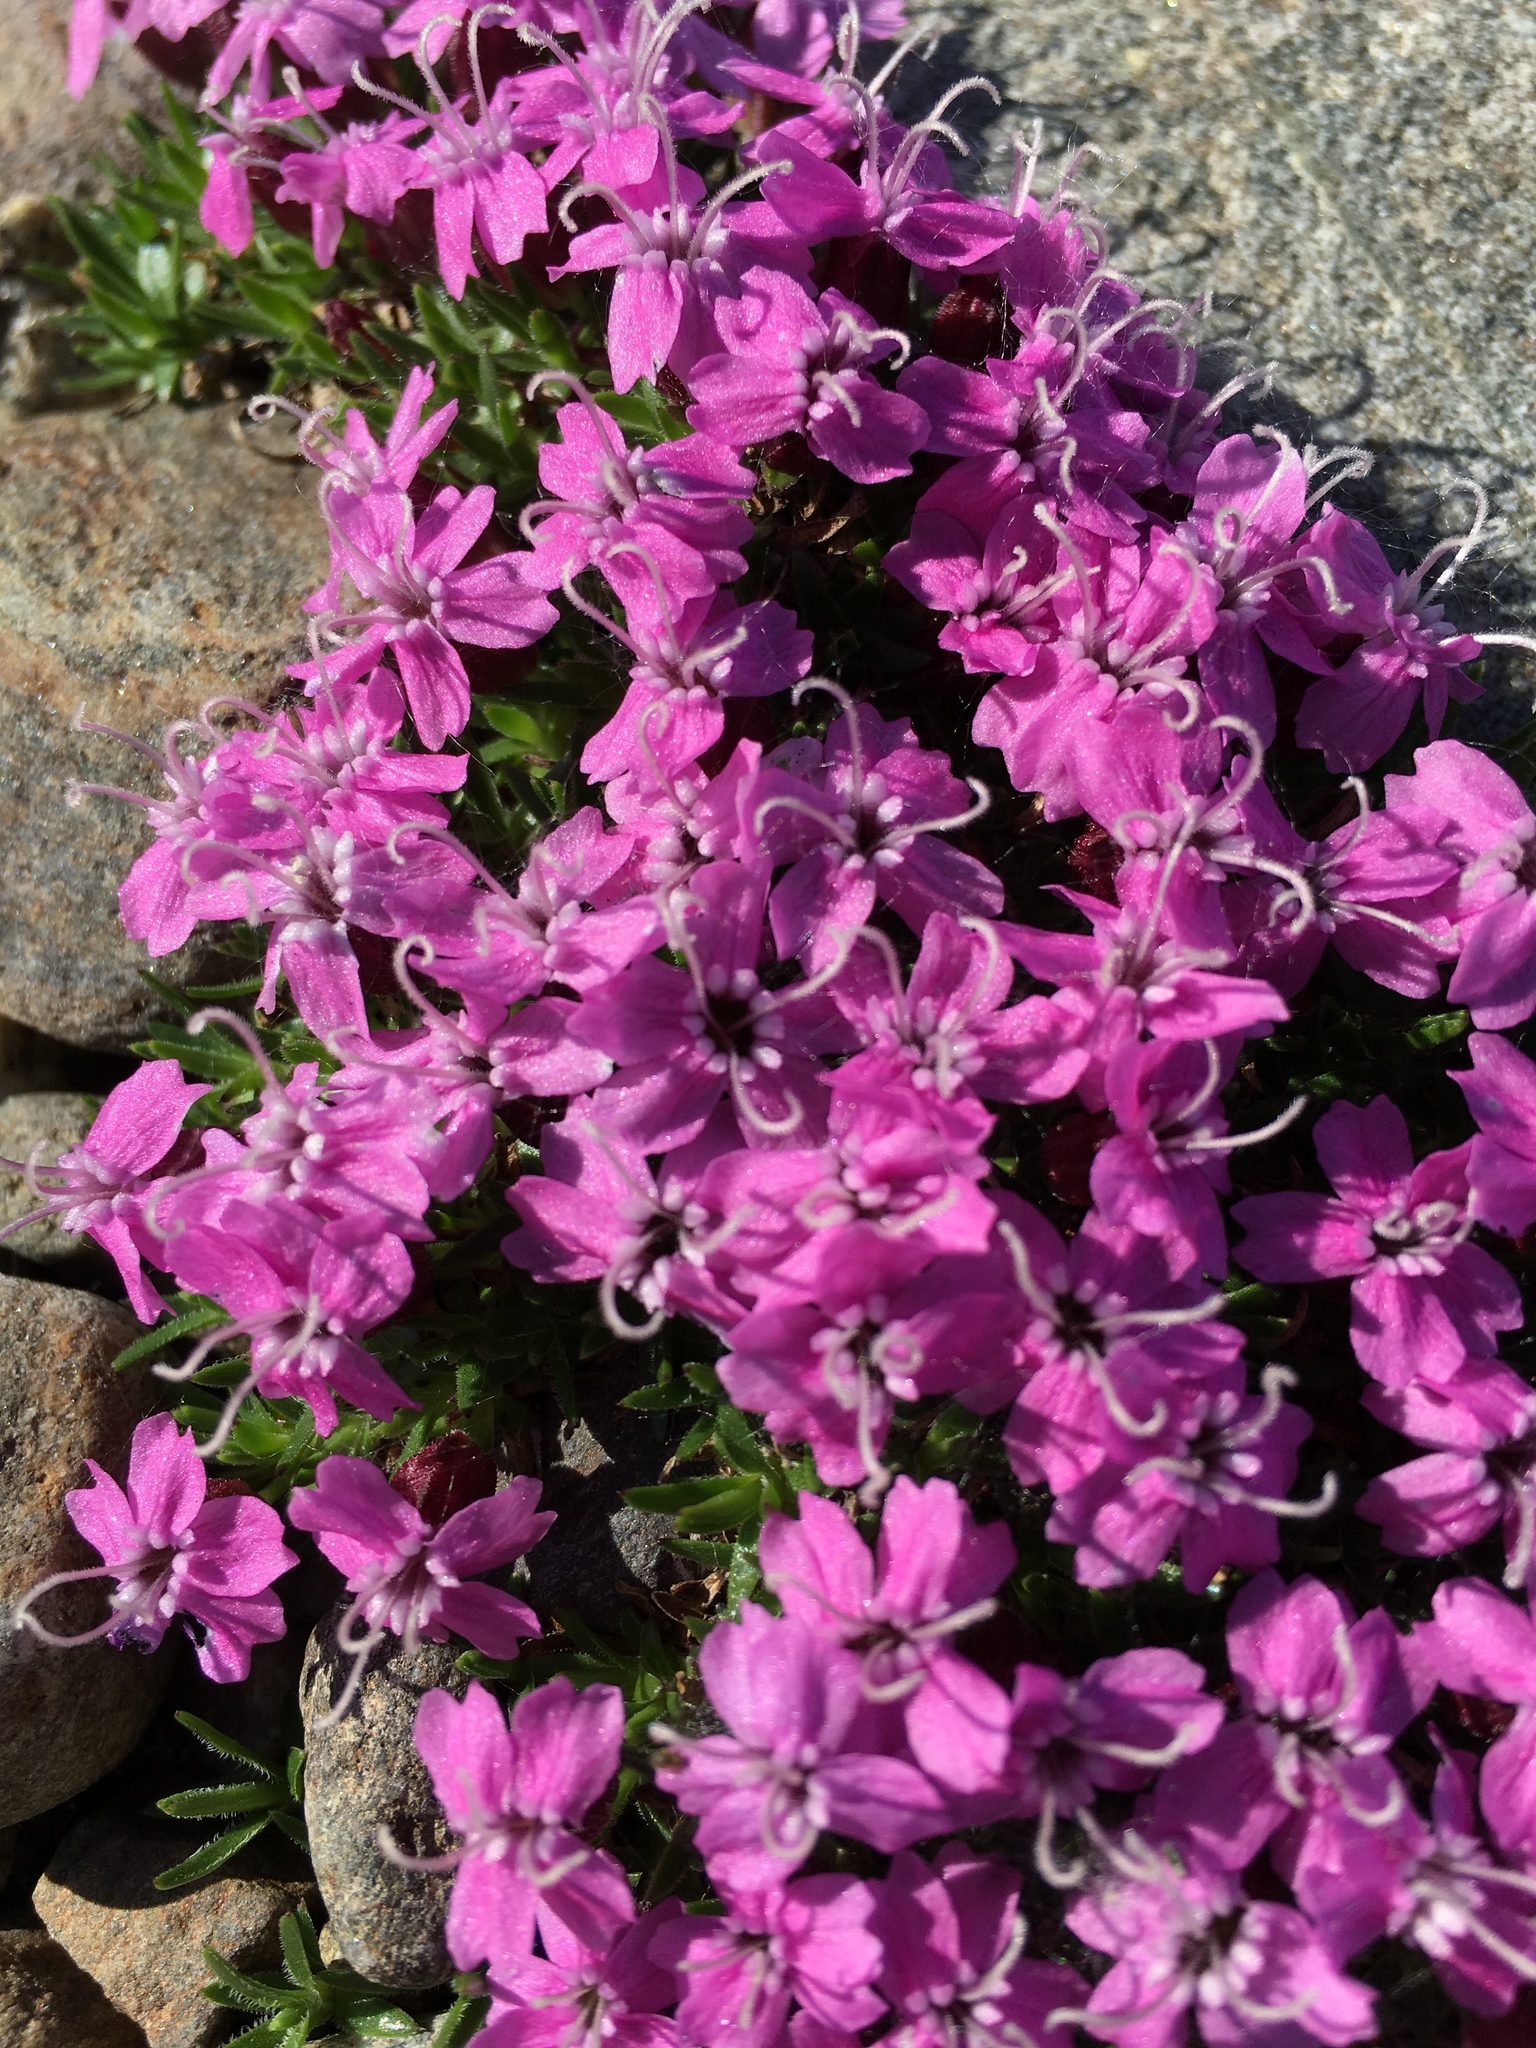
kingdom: Plantae
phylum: Tracheophyta
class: Magnoliopsida
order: Caryophyllales
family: Caryophyllaceae
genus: Silene
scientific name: Silene acaulis
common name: Moss campion
